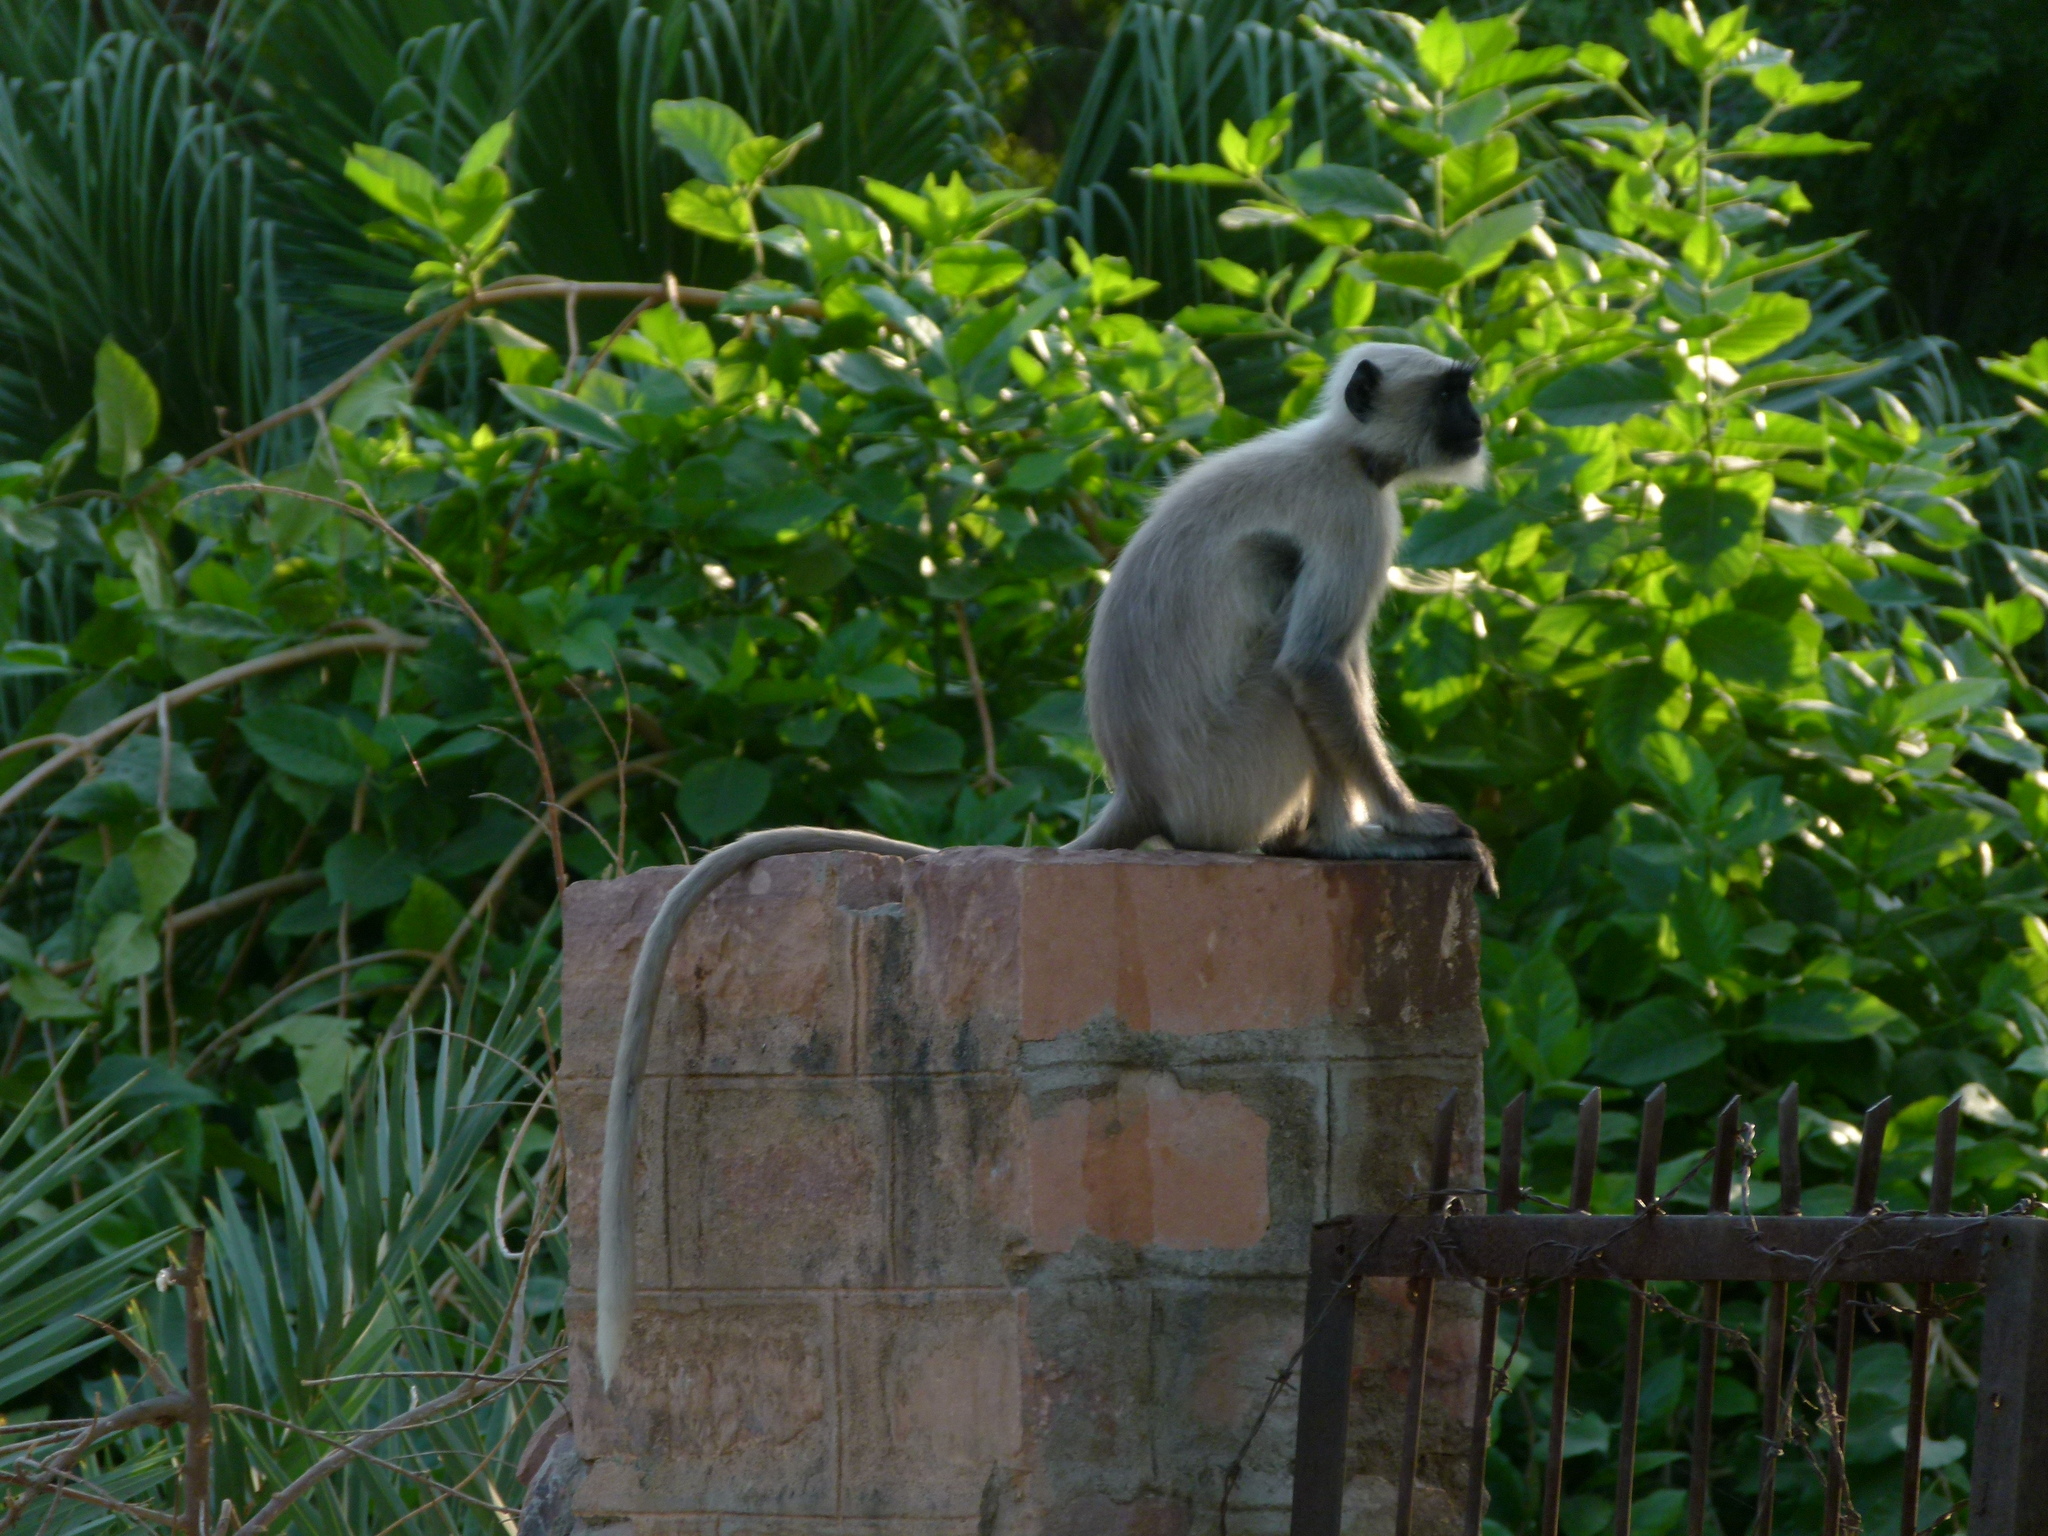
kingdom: Animalia
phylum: Chordata
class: Mammalia
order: Primates
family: Cercopithecidae
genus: Semnopithecus
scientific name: Semnopithecus entellus
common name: Northern plains gray langur
